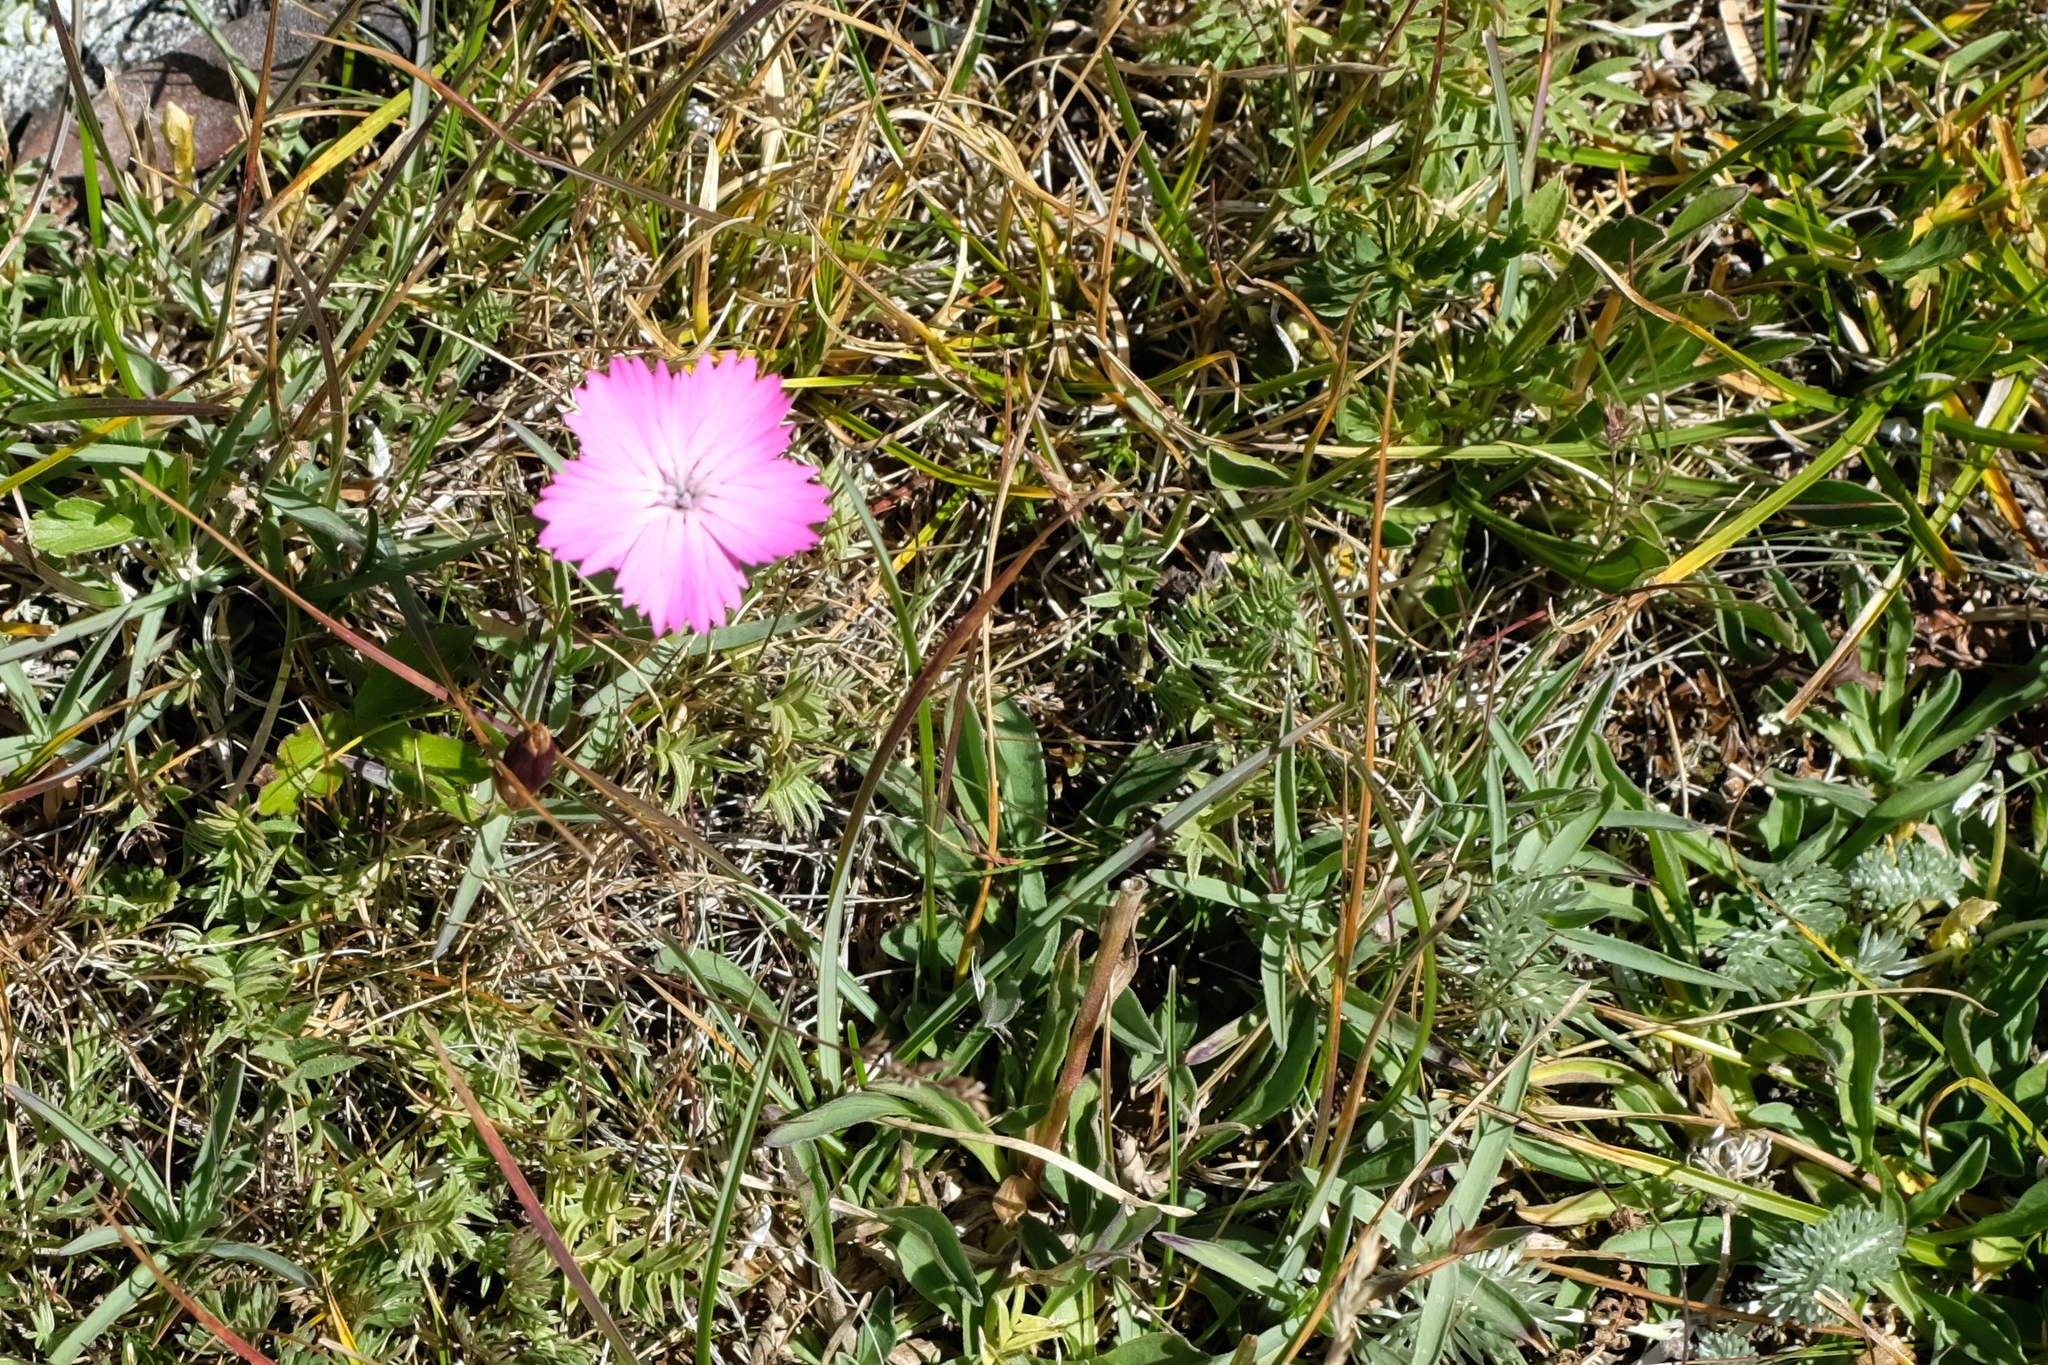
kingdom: Plantae
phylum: Tracheophyta
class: Magnoliopsida
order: Caryophyllales
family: Caryophyllaceae
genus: Dianthus
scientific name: Dianthus caucaseus
